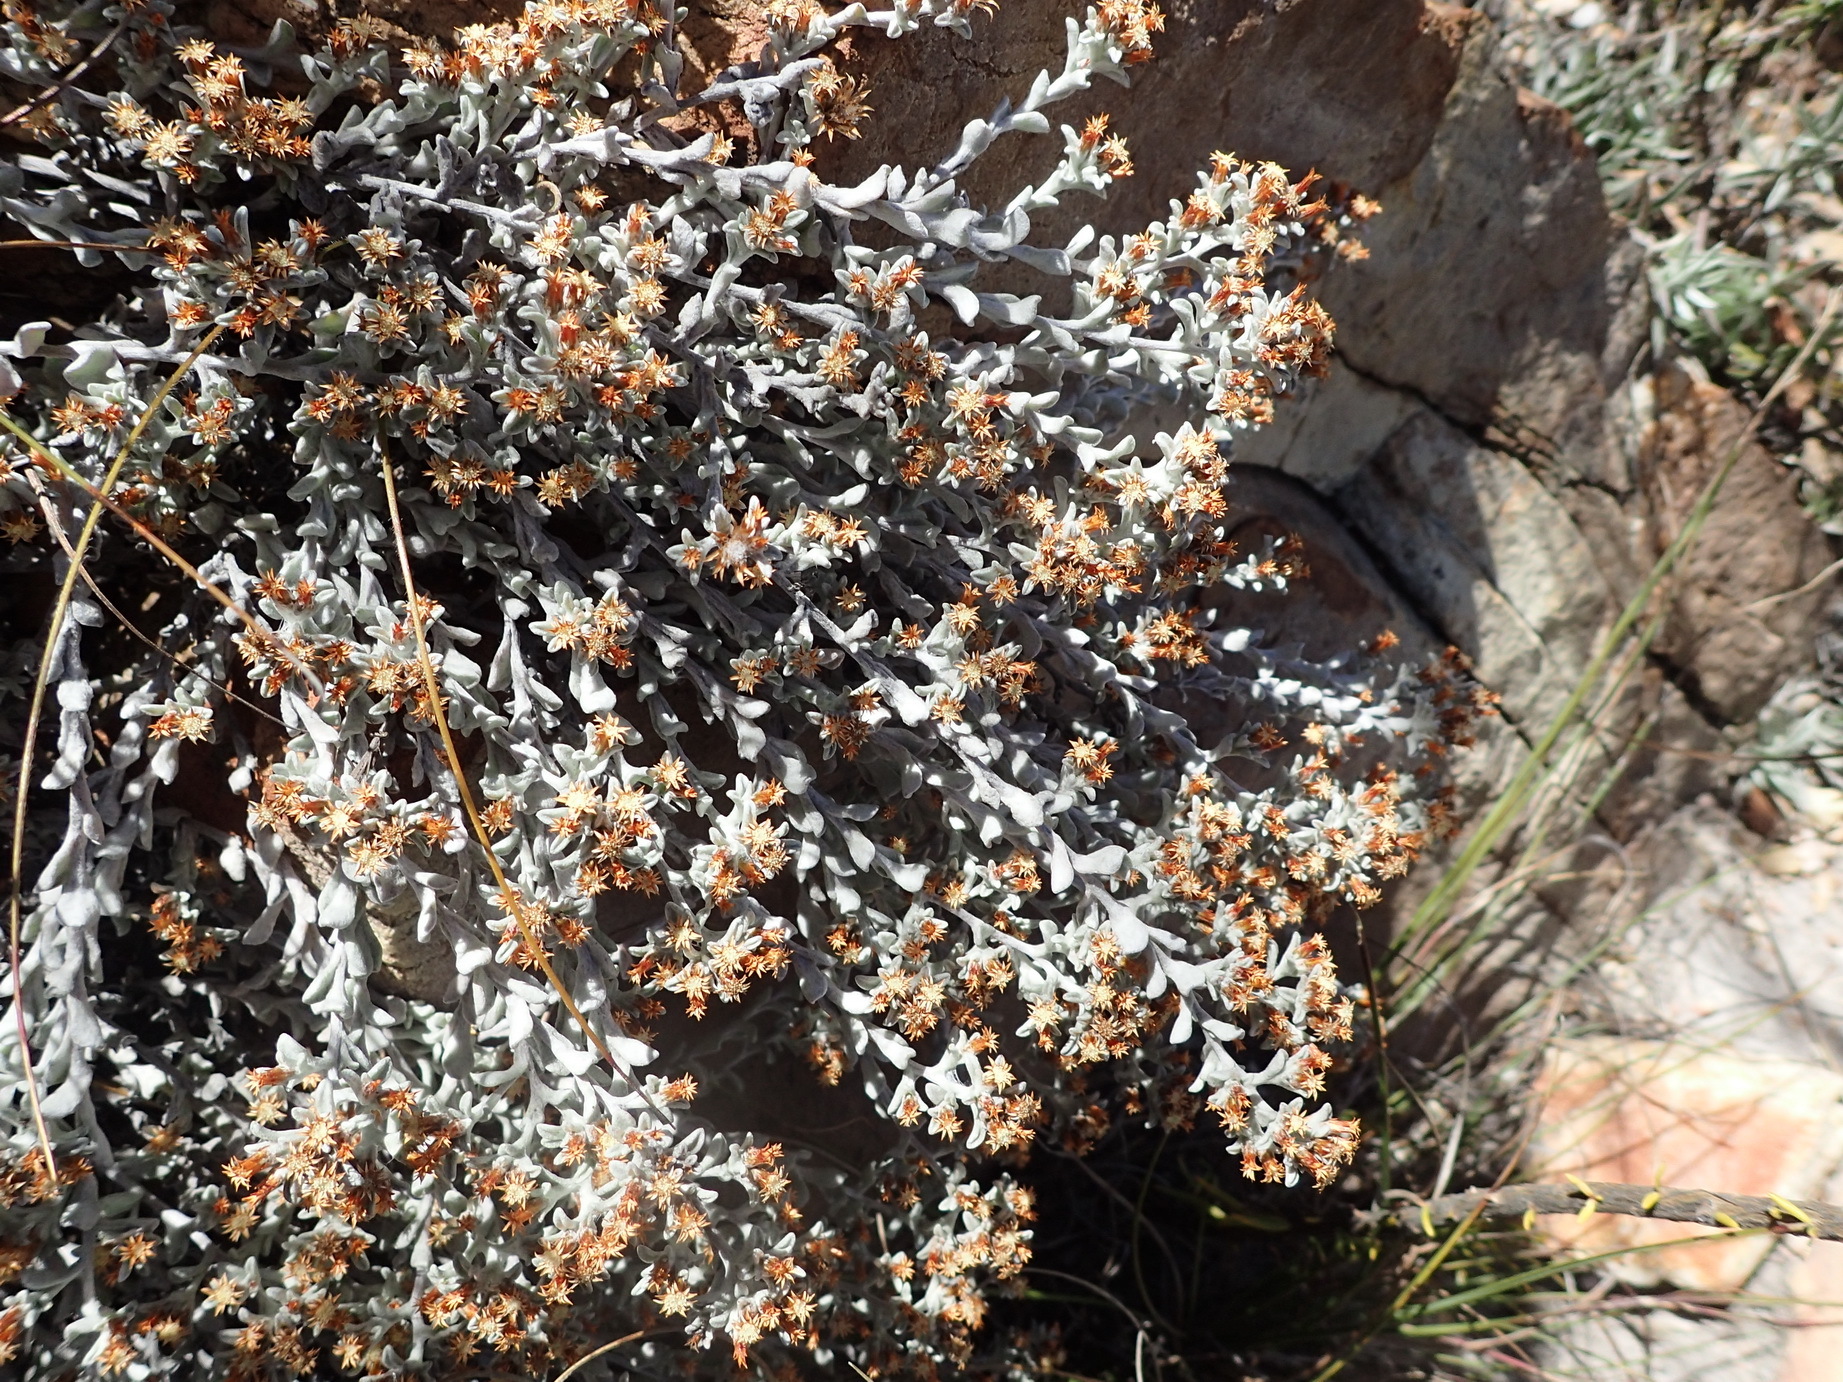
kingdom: Plantae
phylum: Tracheophyta
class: Magnoliopsida
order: Asterales
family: Asteraceae
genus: Helichrysum
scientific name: Helichrysum tinctum
